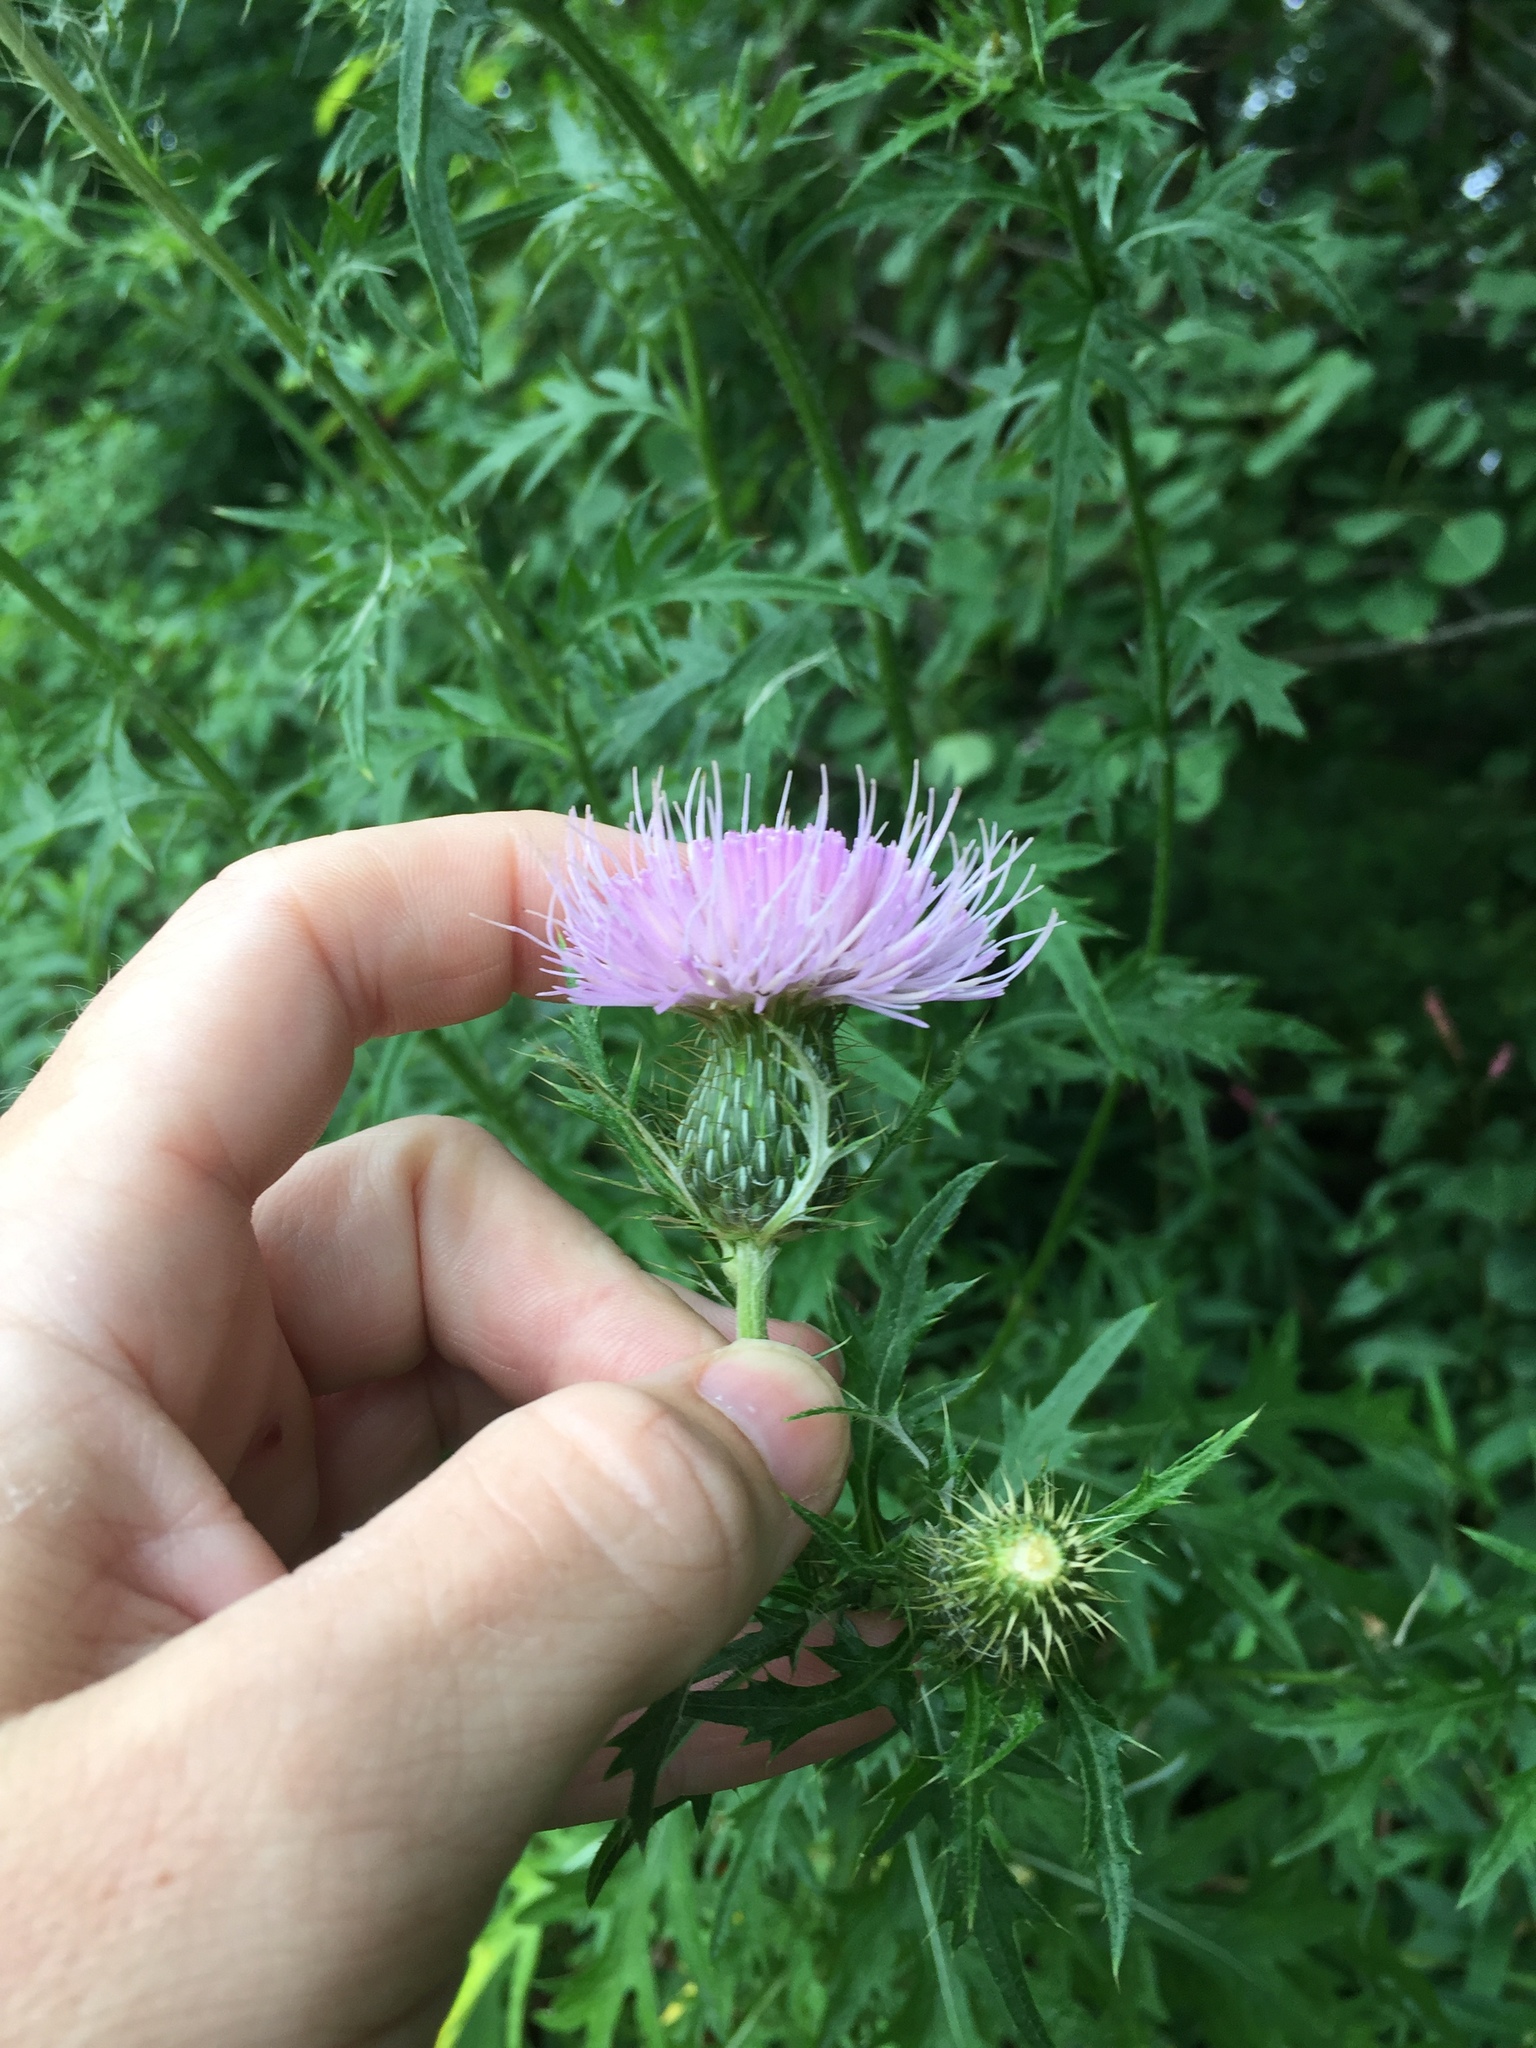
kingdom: Plantae
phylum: Tracheophyta
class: Magnoliopsida
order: Asterales
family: Asteraceae
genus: Cirsium
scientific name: Cirsium discolor
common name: Field thistle
